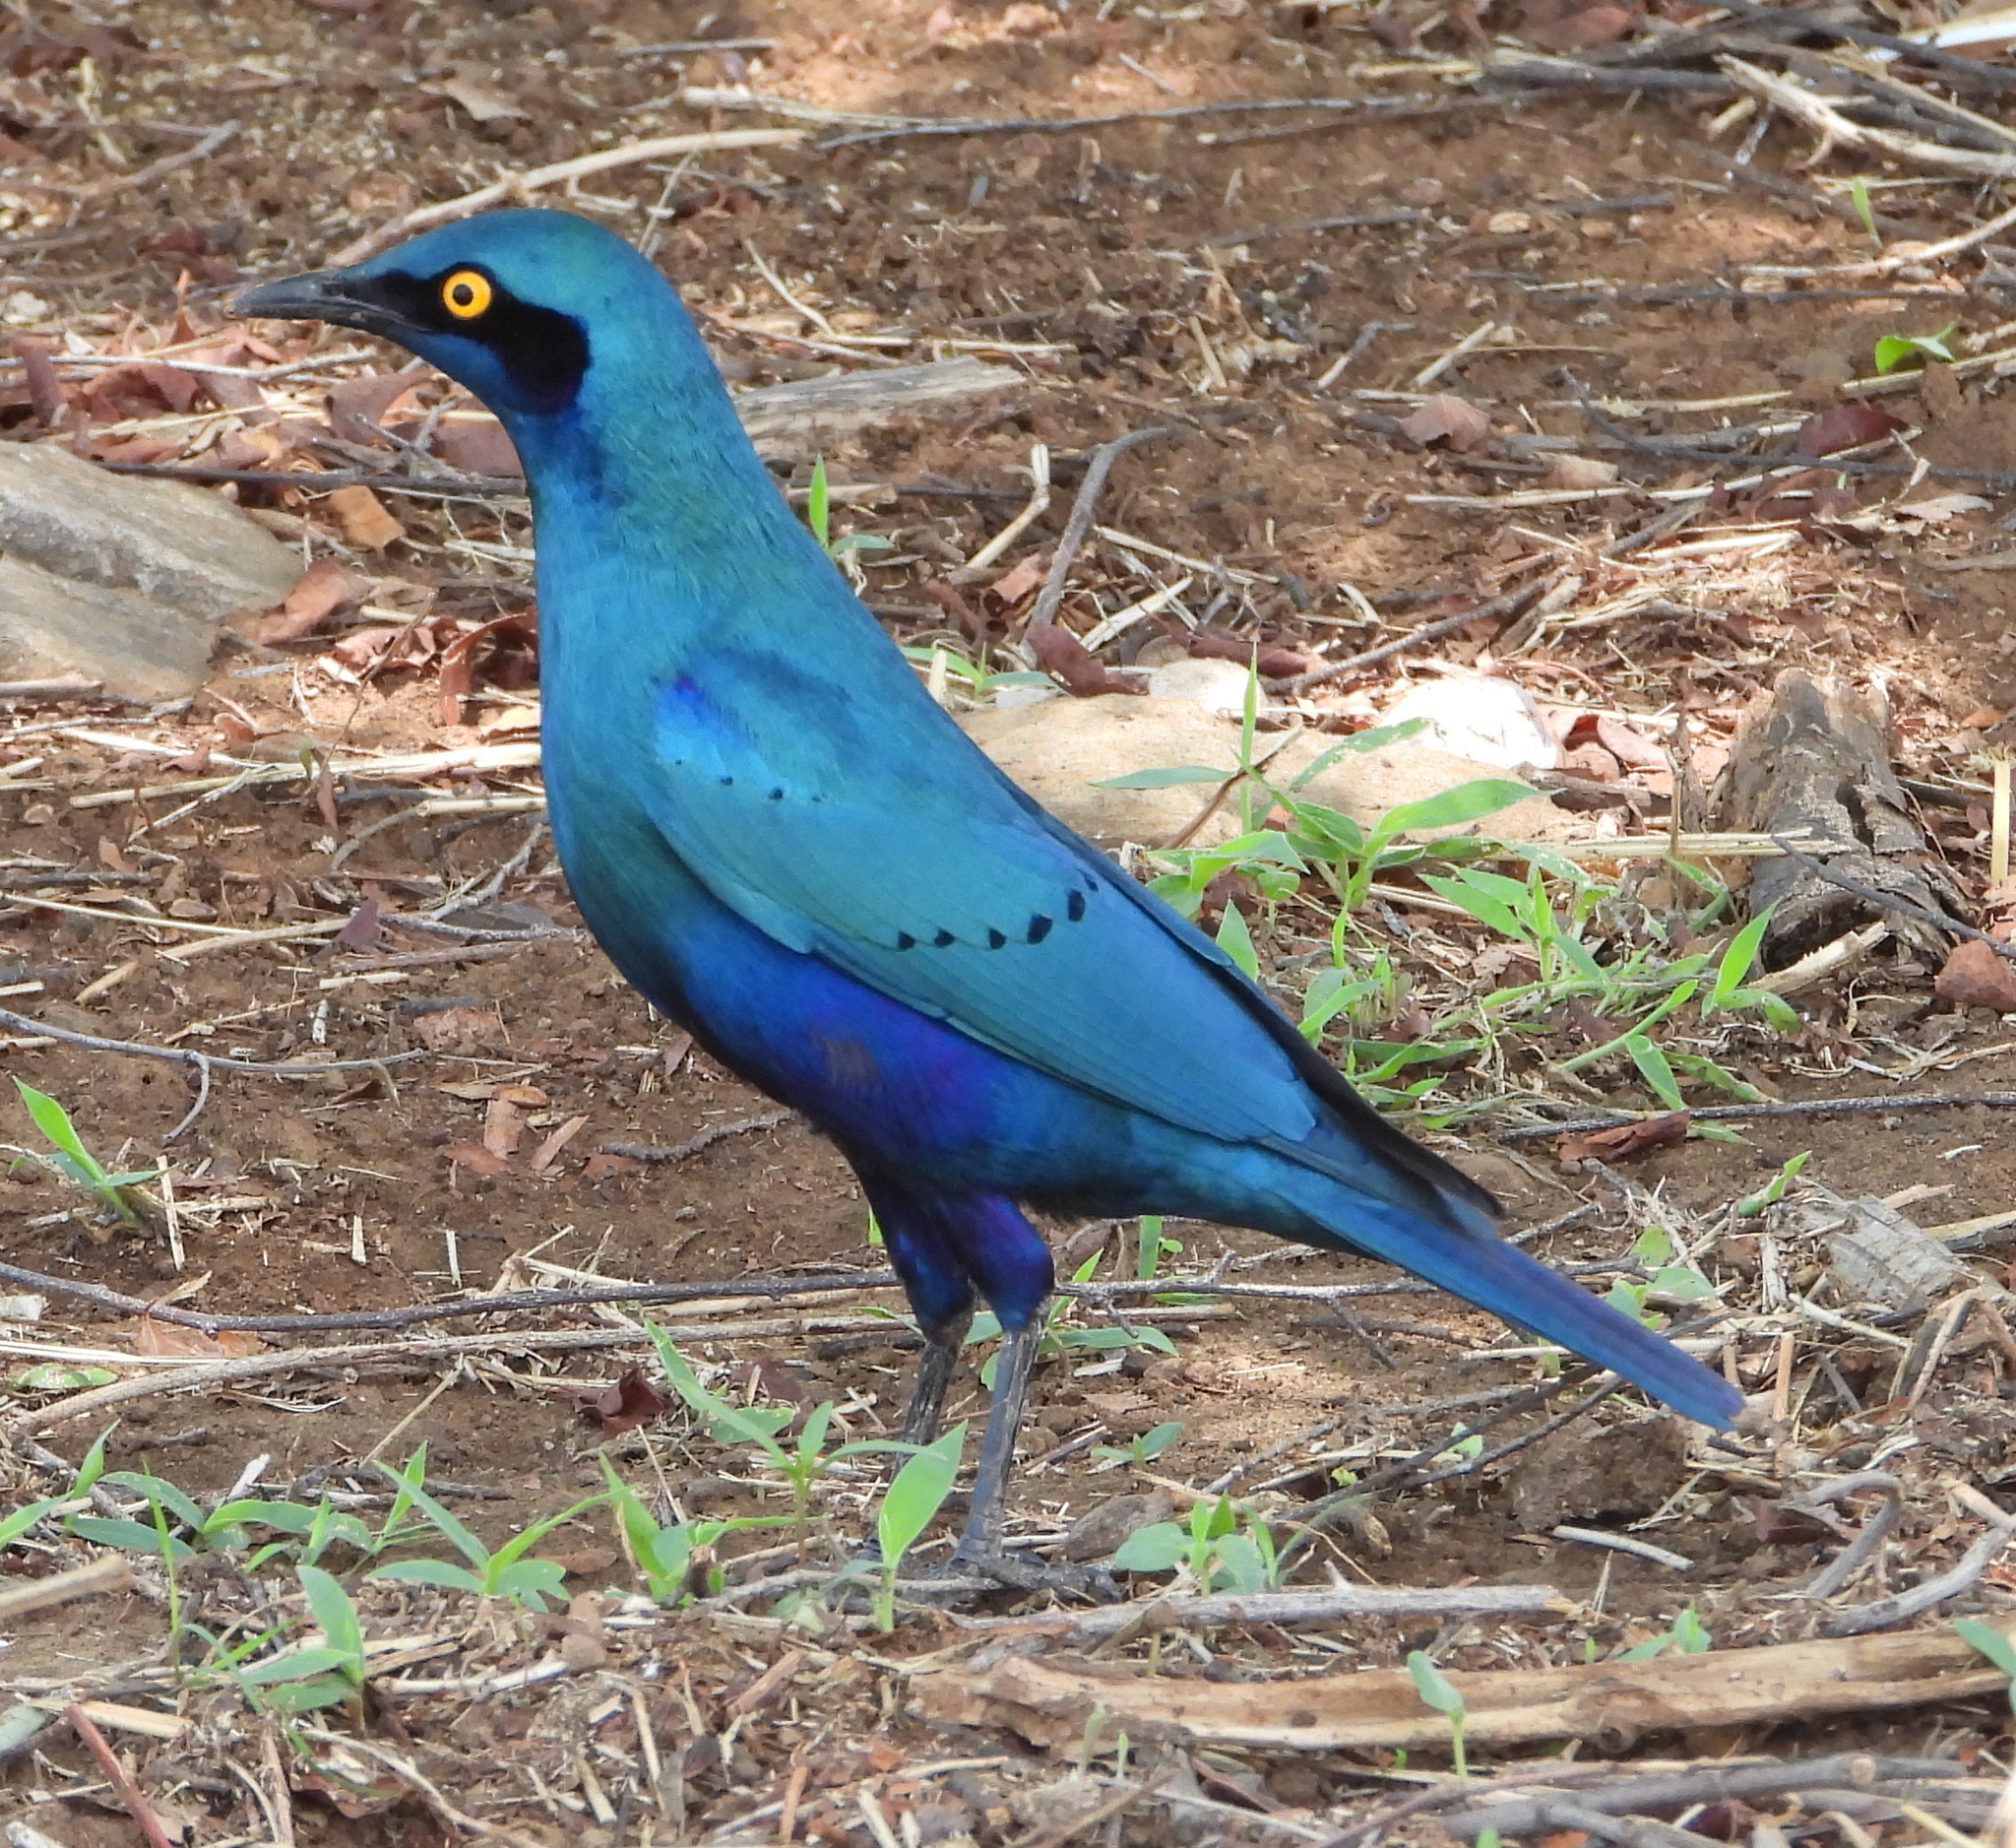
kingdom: Animalia
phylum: Chordata
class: Aves
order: Passeriformes
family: Sturnidae
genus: Lamprotornis
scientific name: Lamprotornis chalybaeus
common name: Greater blue-eared starling
